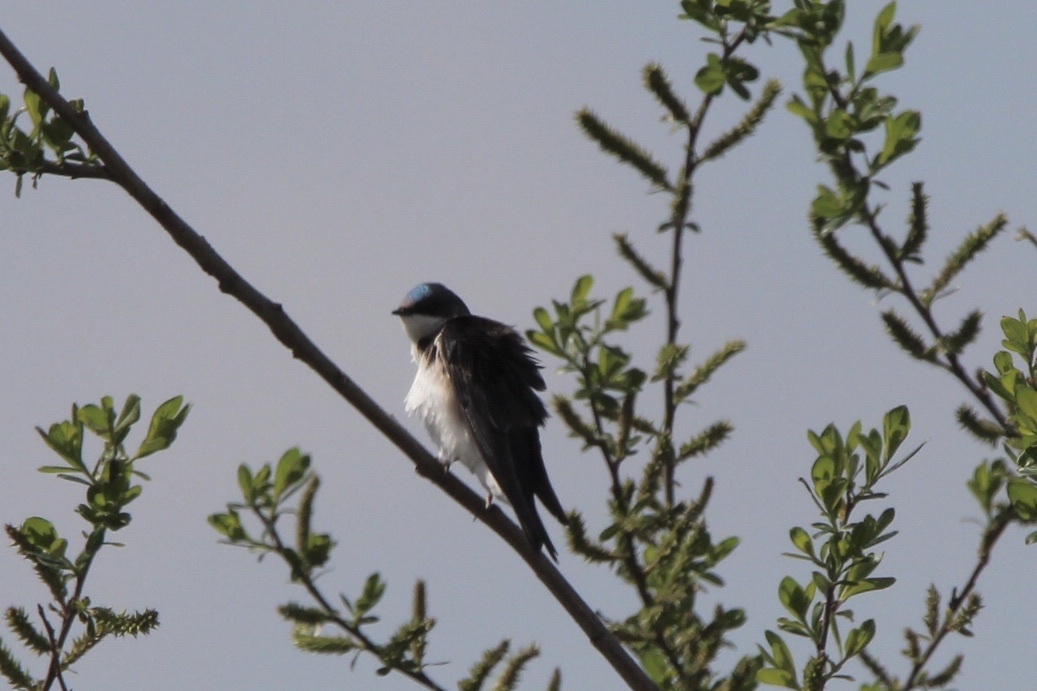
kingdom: Animalia
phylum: Chordata
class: Aves
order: Passeriformes
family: Hirundinidae
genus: Tachycineta
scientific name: Tachycineta bicolor
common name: Tree swallow
